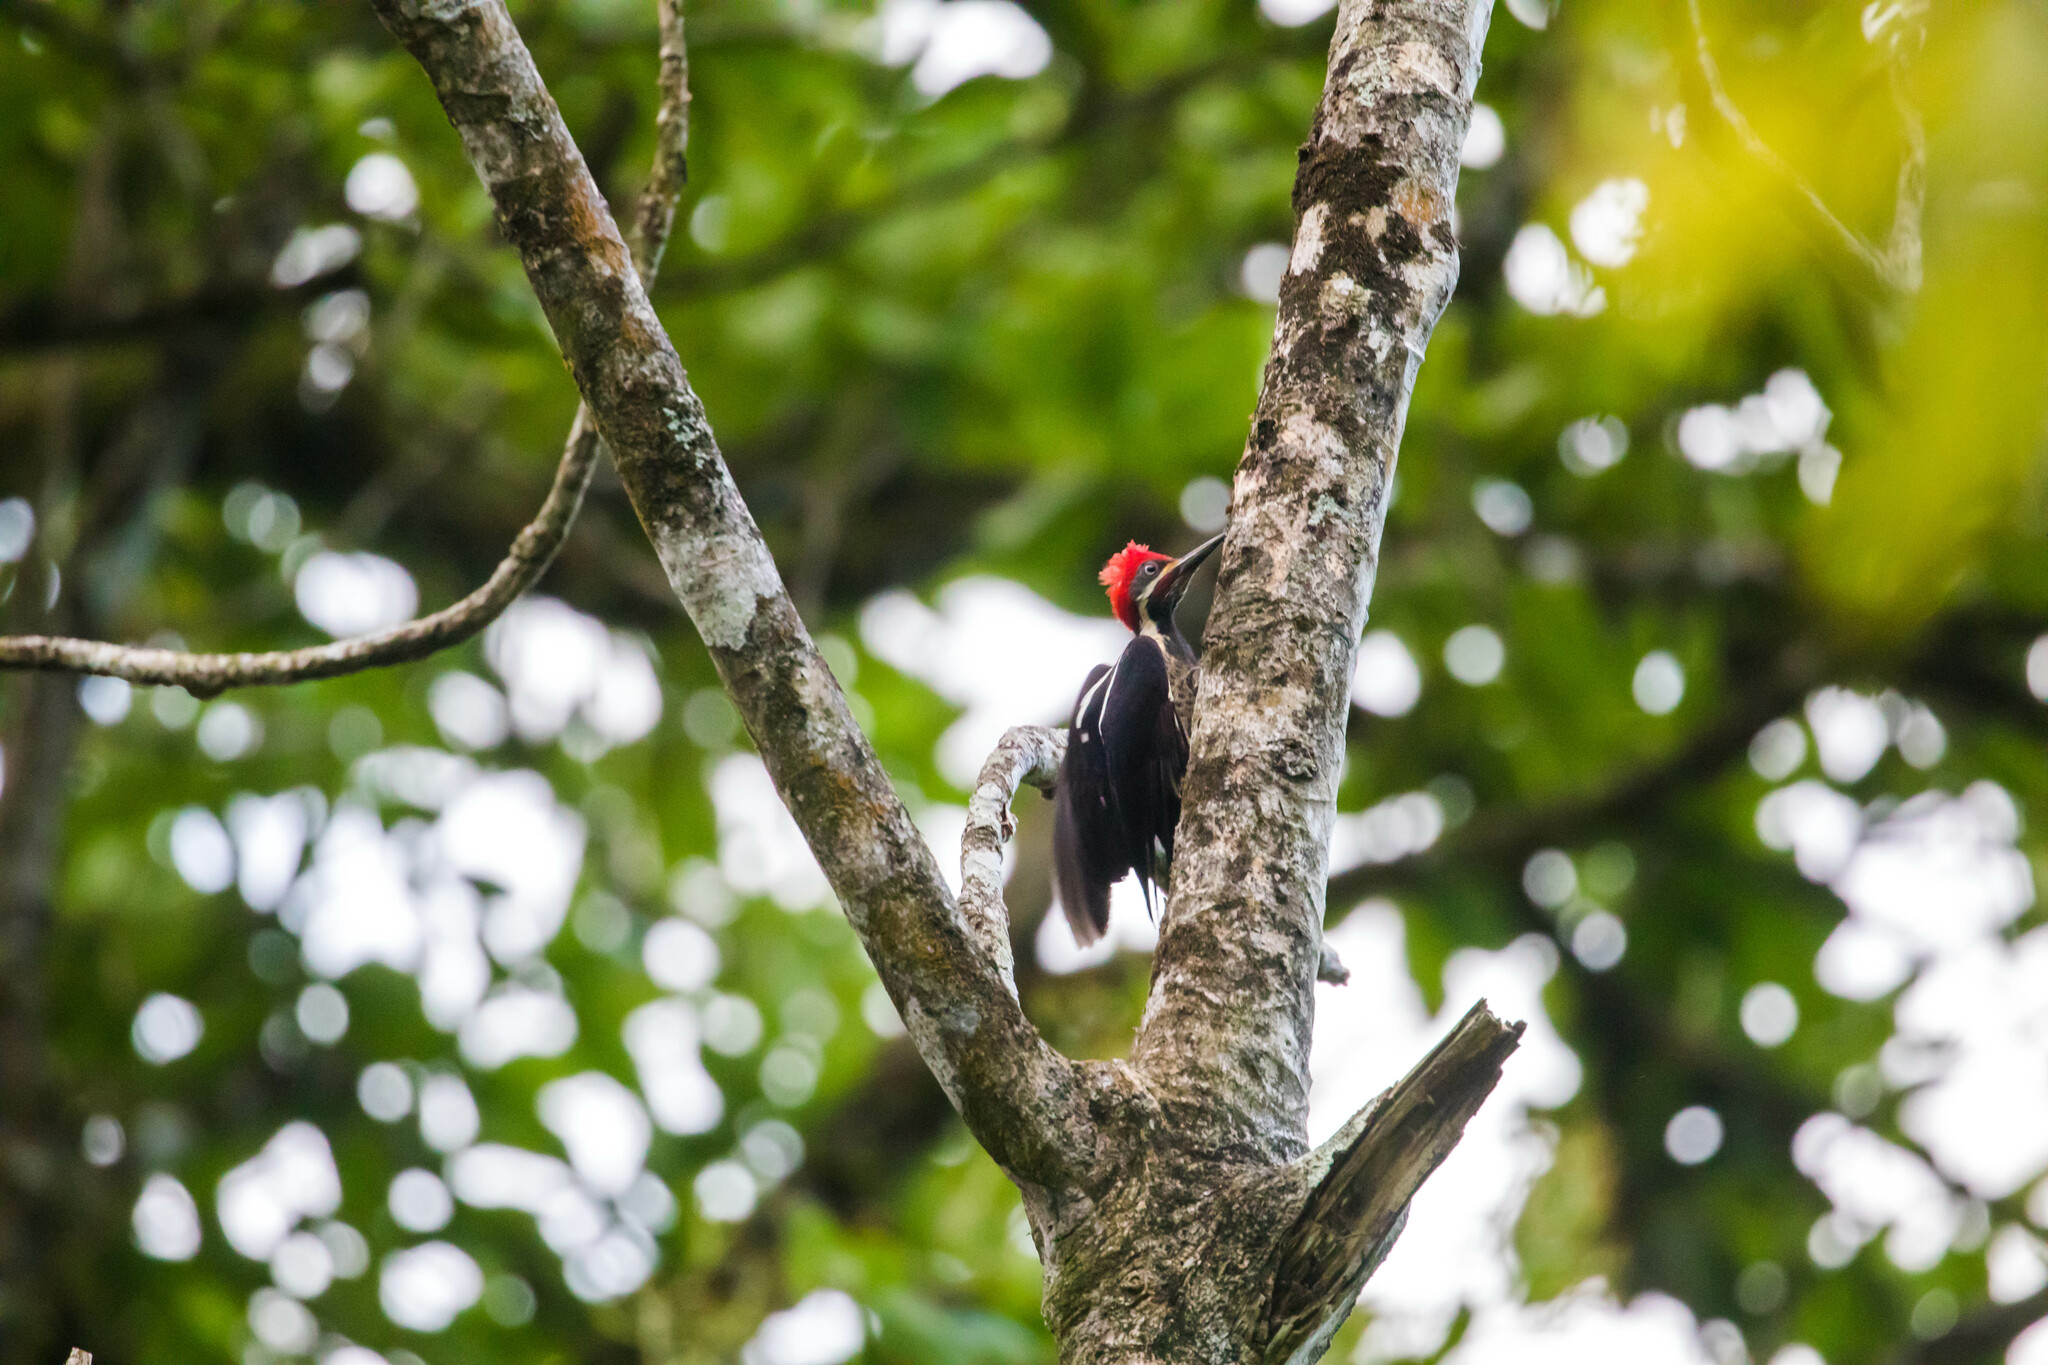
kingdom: Animalia
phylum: Chordata
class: Aves
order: Piciformes
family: Picidae
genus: Dryocopus
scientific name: Dryocopus lineatus
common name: Lineated woodpecker
